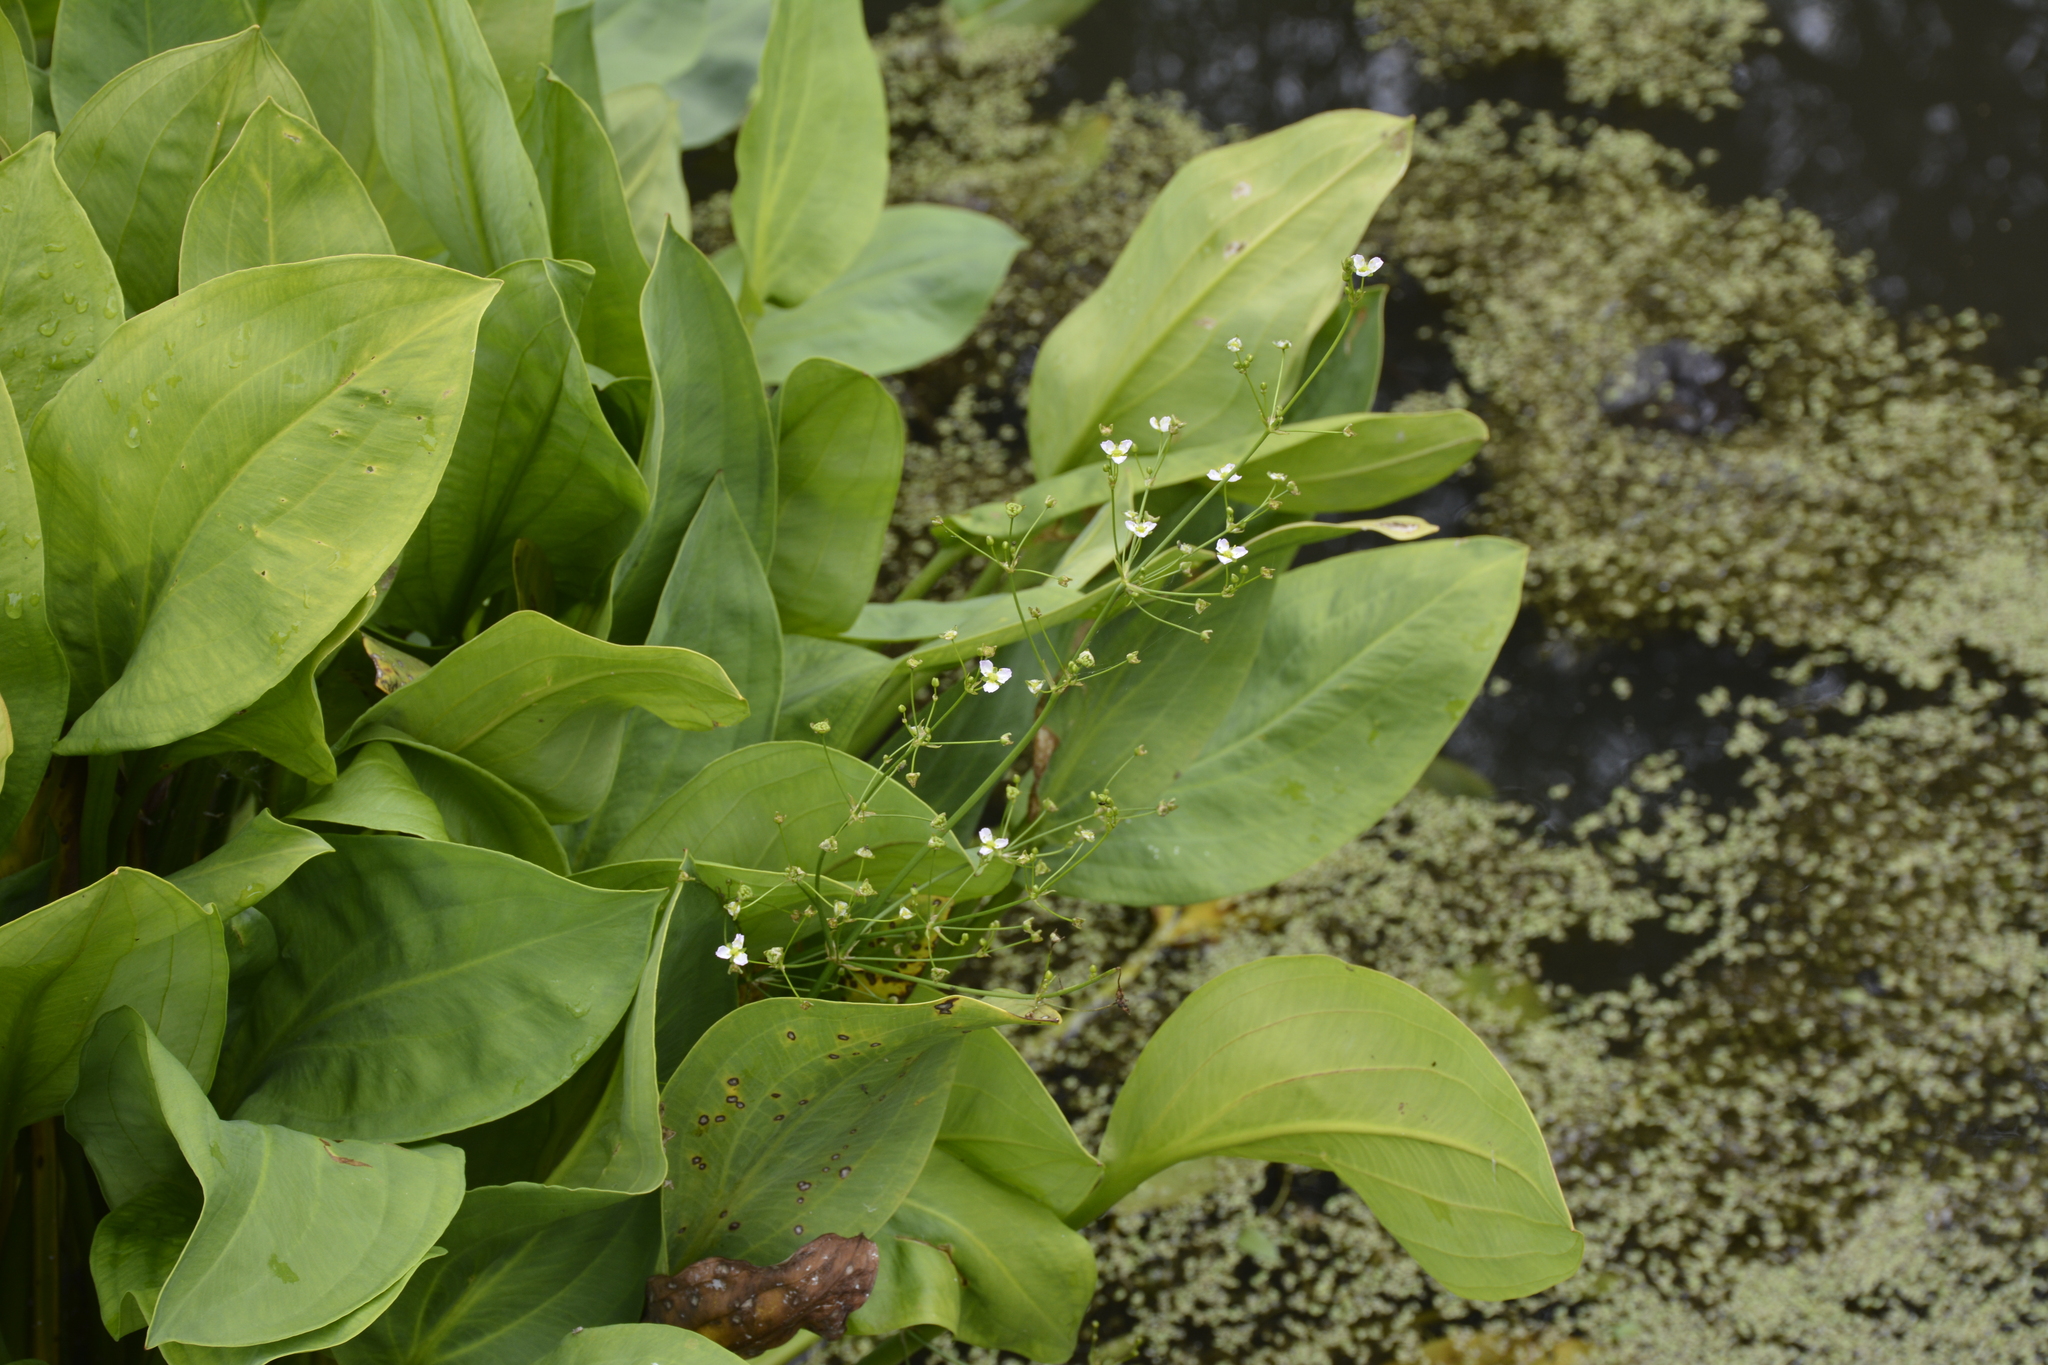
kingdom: Plantae
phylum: Tracheophyta
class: Liliopsida
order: Alismatales
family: Alismataceae
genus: Alisma
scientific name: Alisma plantago-aquatica
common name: Water-plantain
